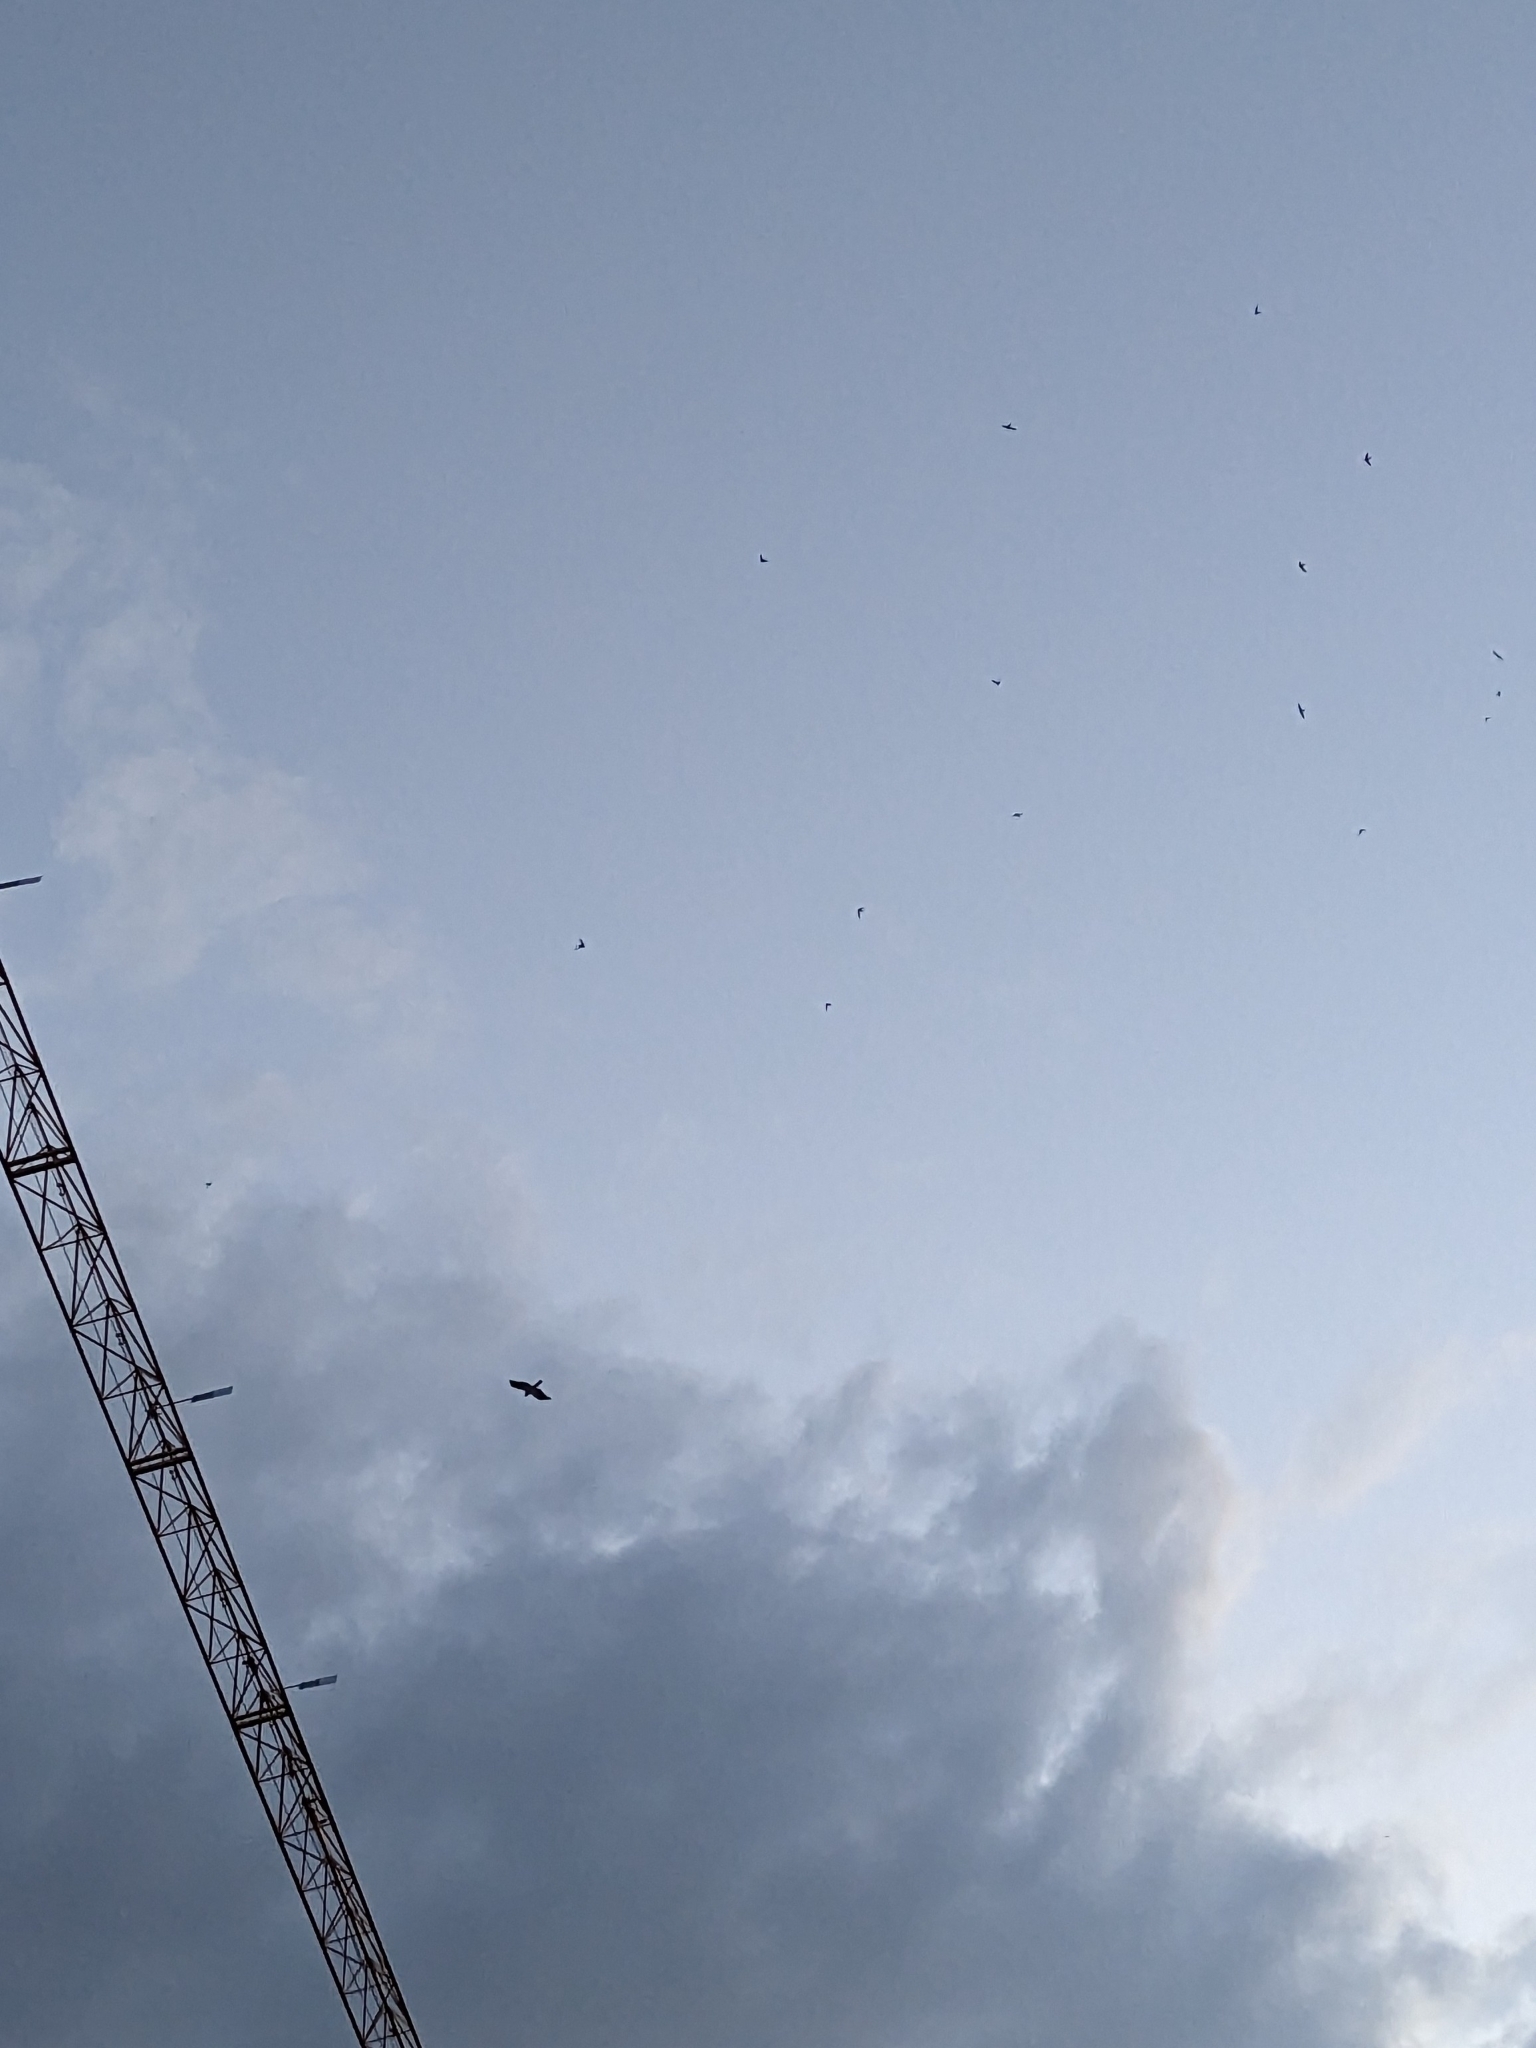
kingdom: Animalia
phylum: Chordata
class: Aves
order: Accipitriformes
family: Accipitridae
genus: Hieraaetus
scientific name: Hieraaetus pennatus
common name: Booted eagle
